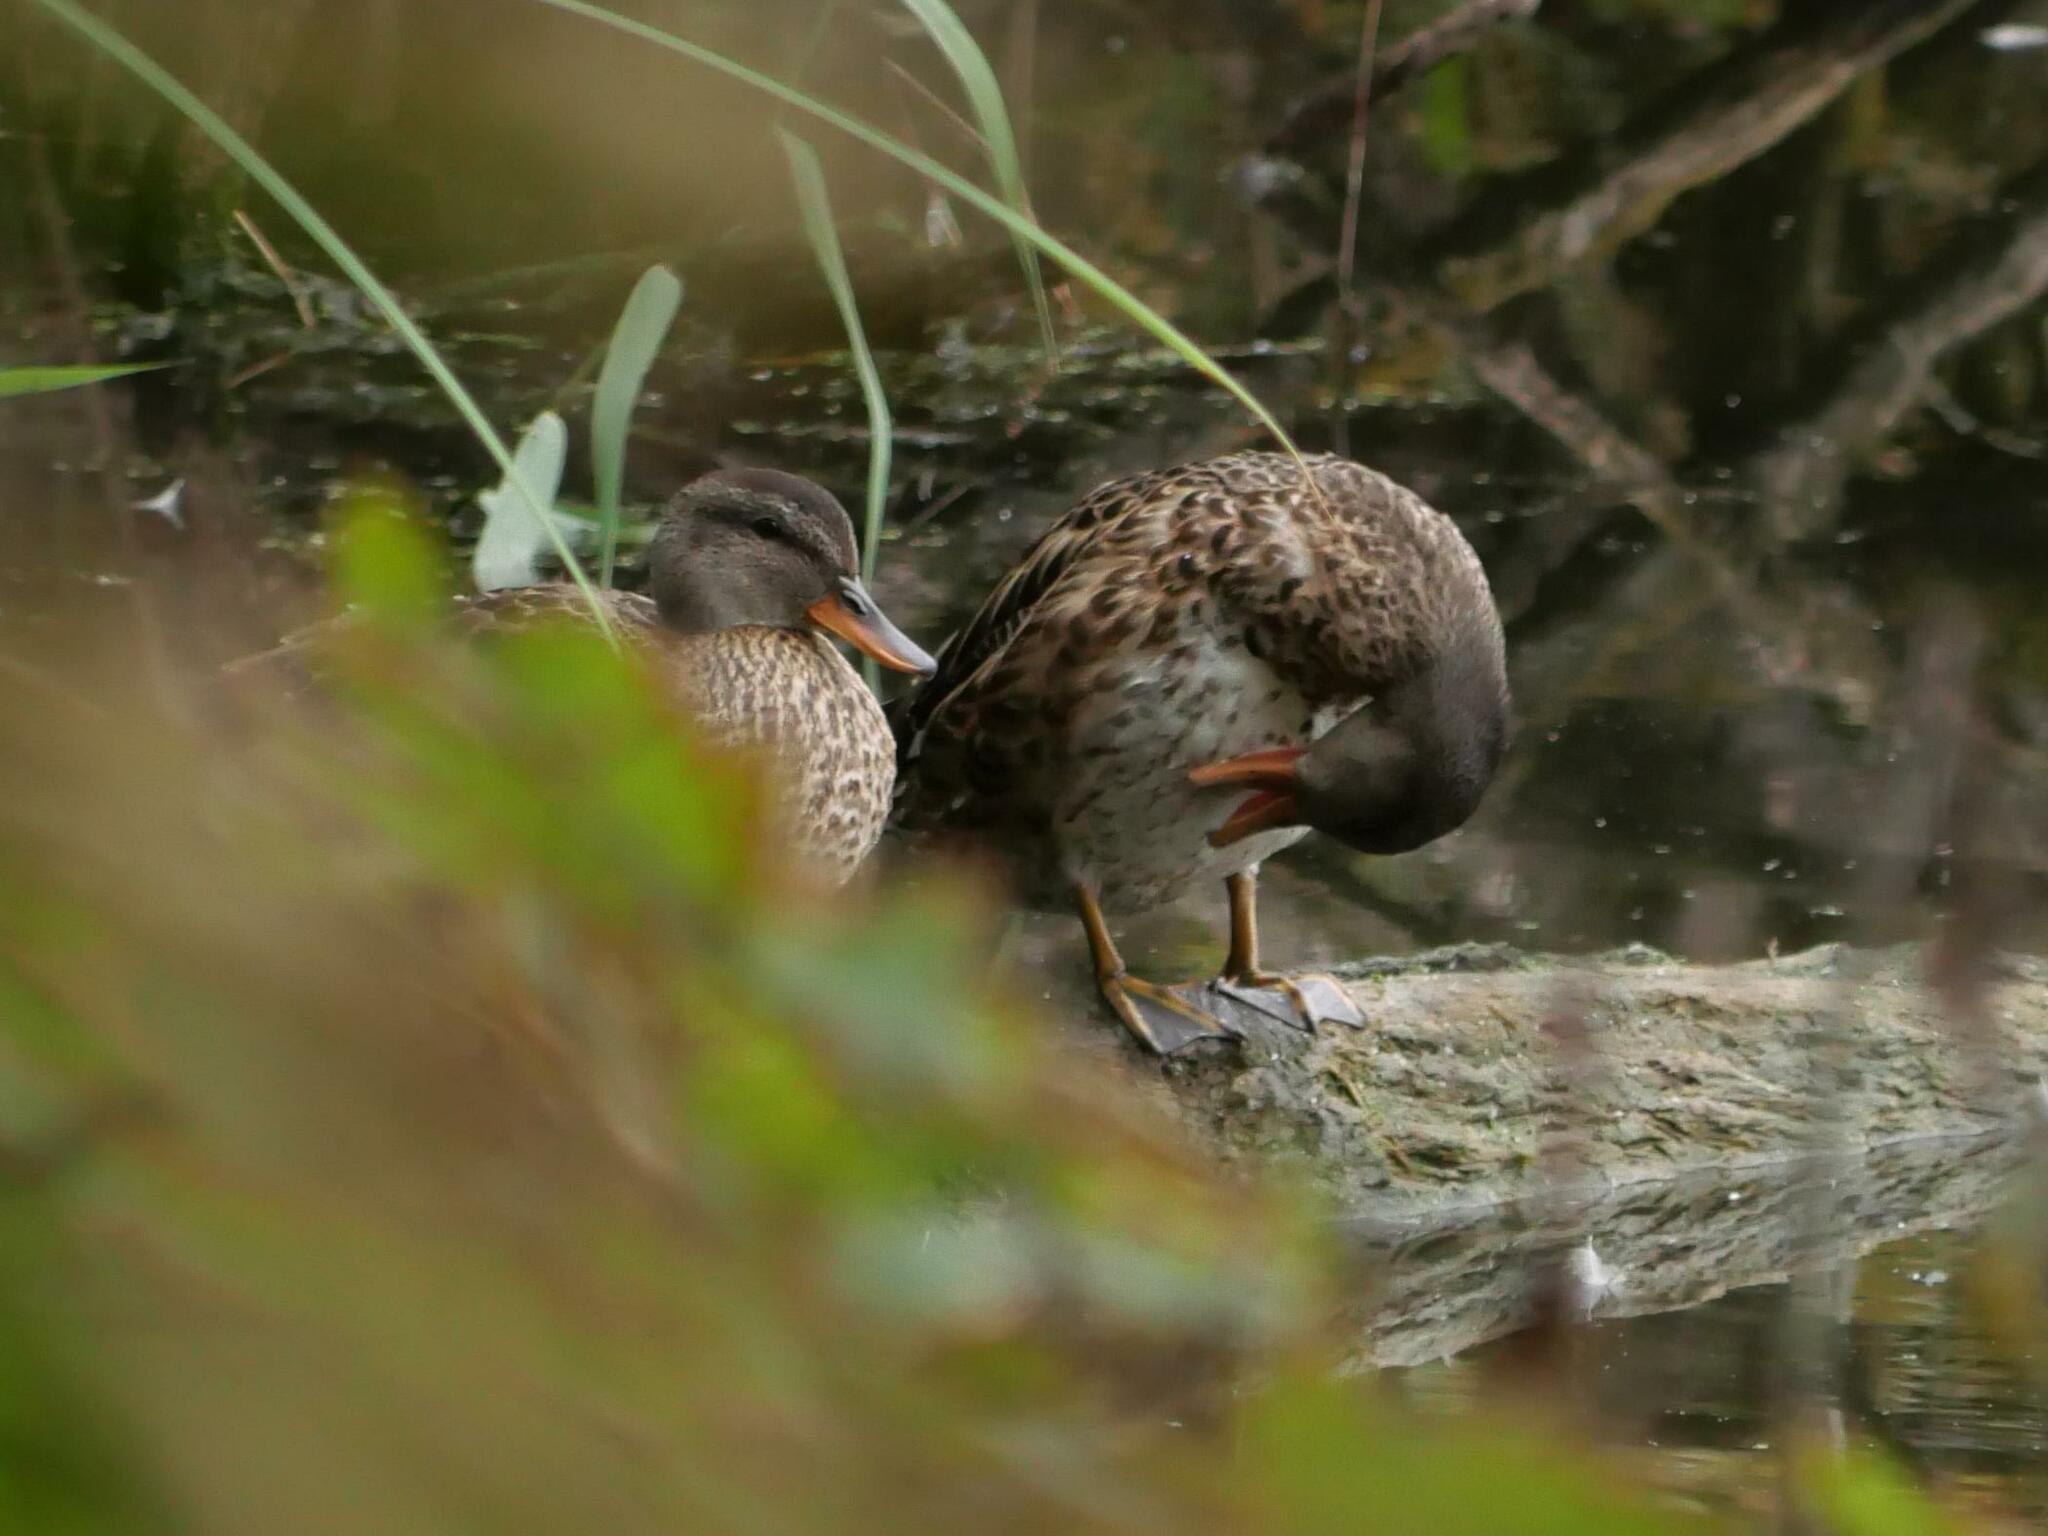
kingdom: Animalia
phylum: Chordata
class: Aves
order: Anseriformes
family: Anatidae
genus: Mareca
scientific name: Mareca strepera
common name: Gadwall
